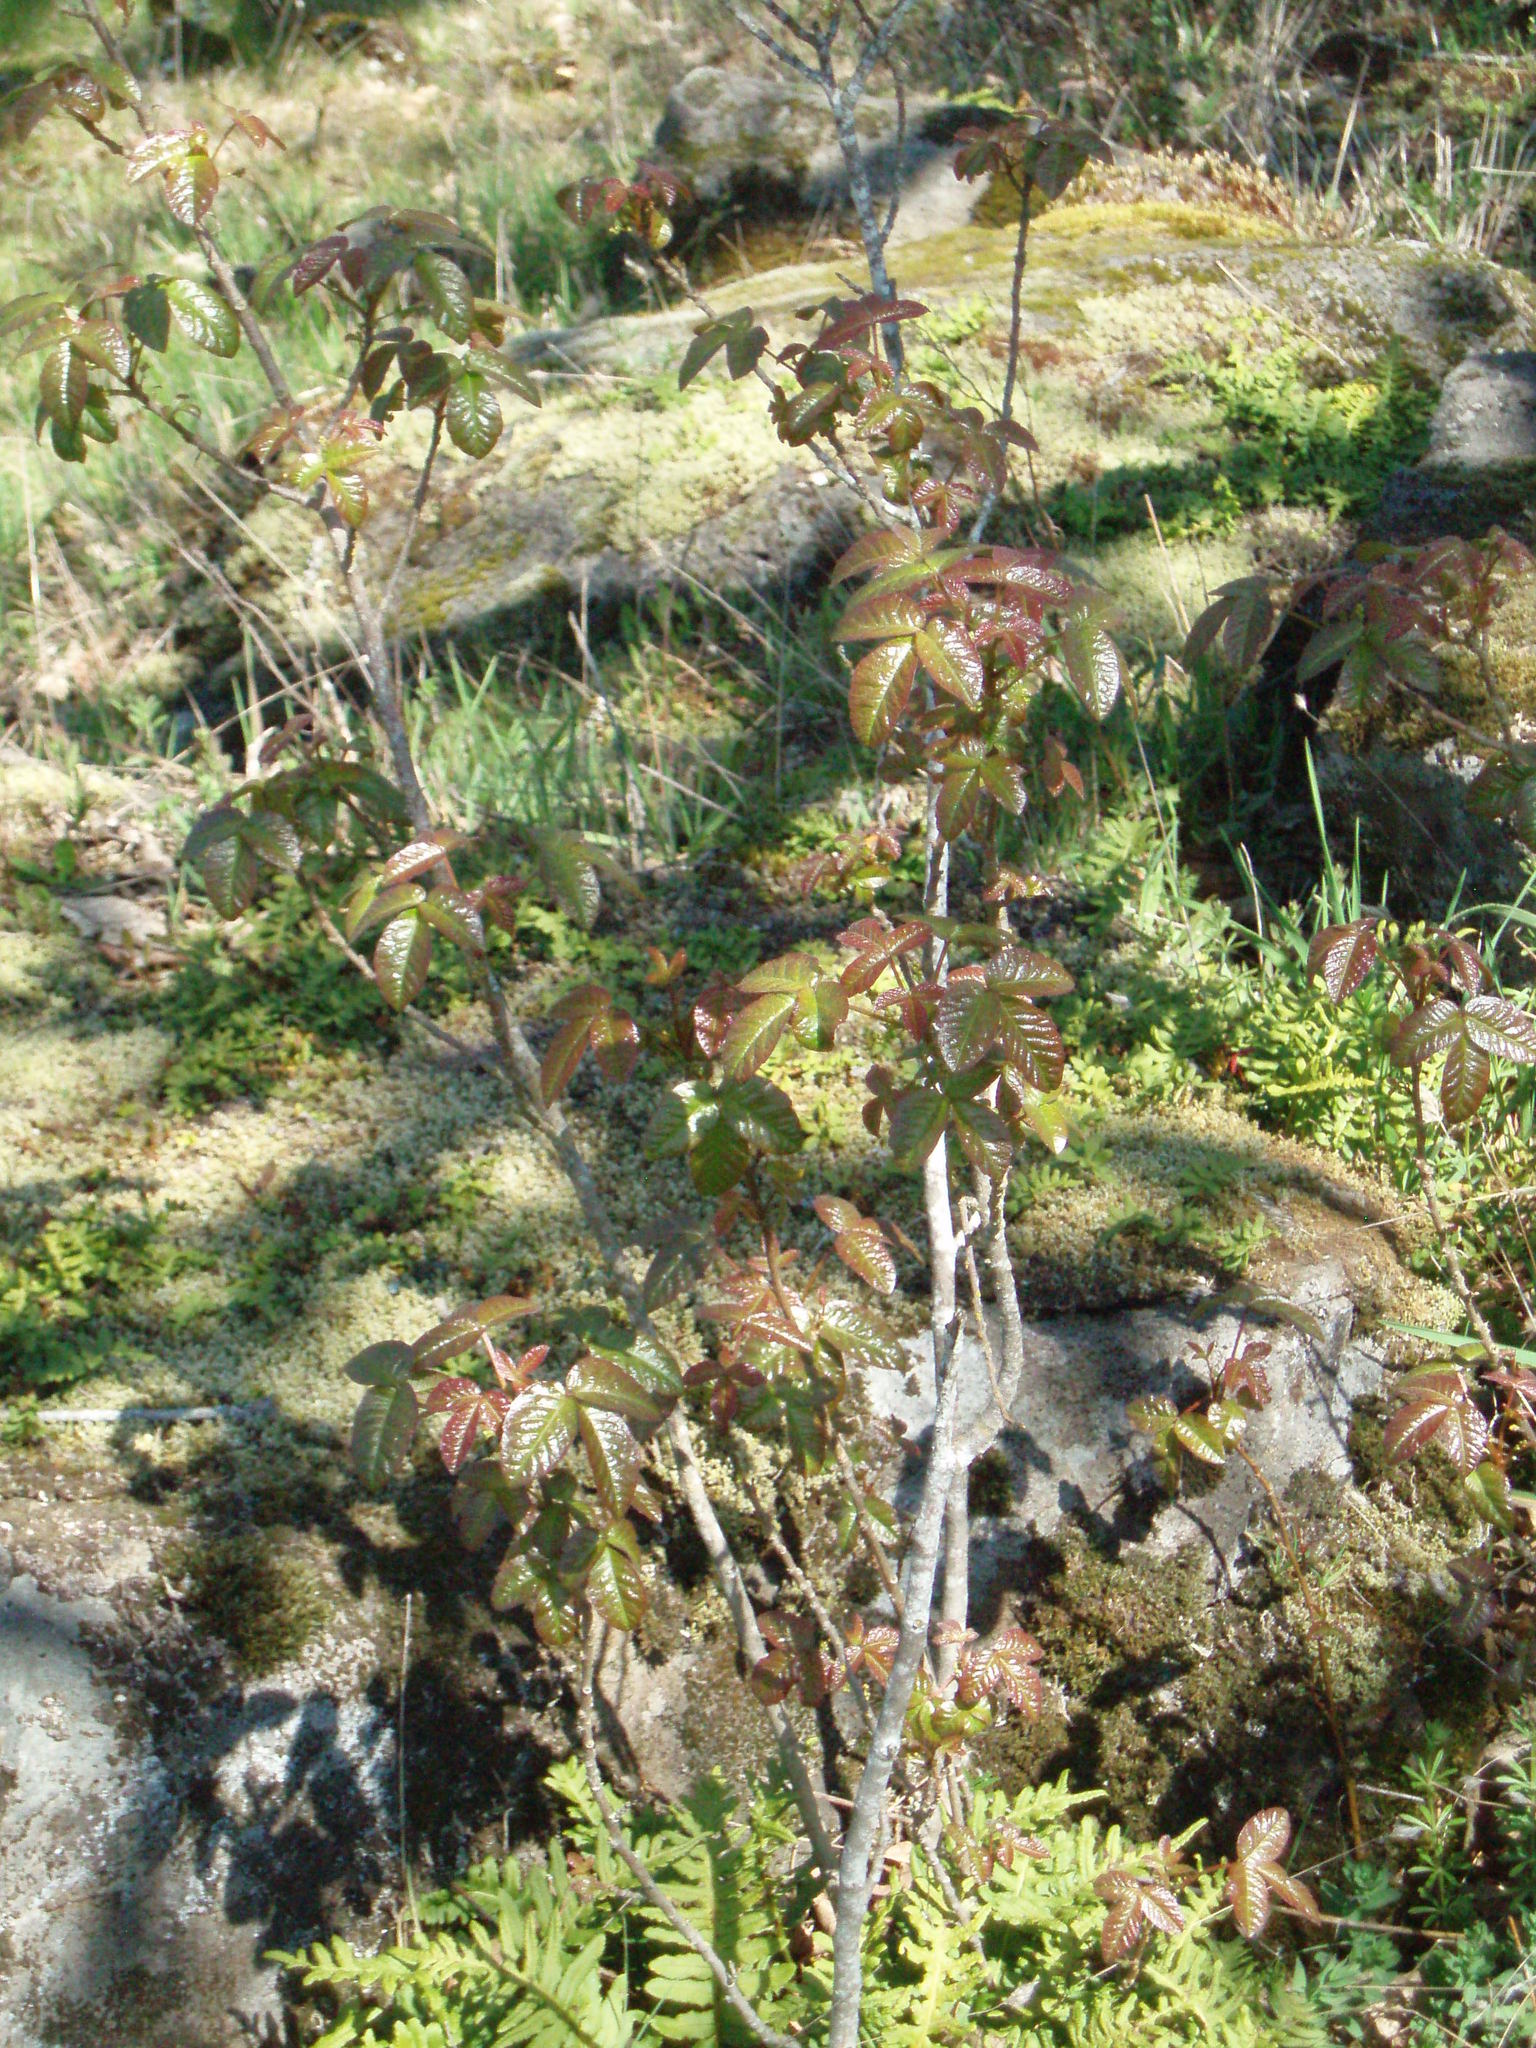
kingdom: Plantae
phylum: Tracheophyta
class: Magnoliopsida
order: Sapindales
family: Anacardiaceae
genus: Toxicodendron
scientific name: Toxicodendron diversilobum
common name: Pacific poison-oak
